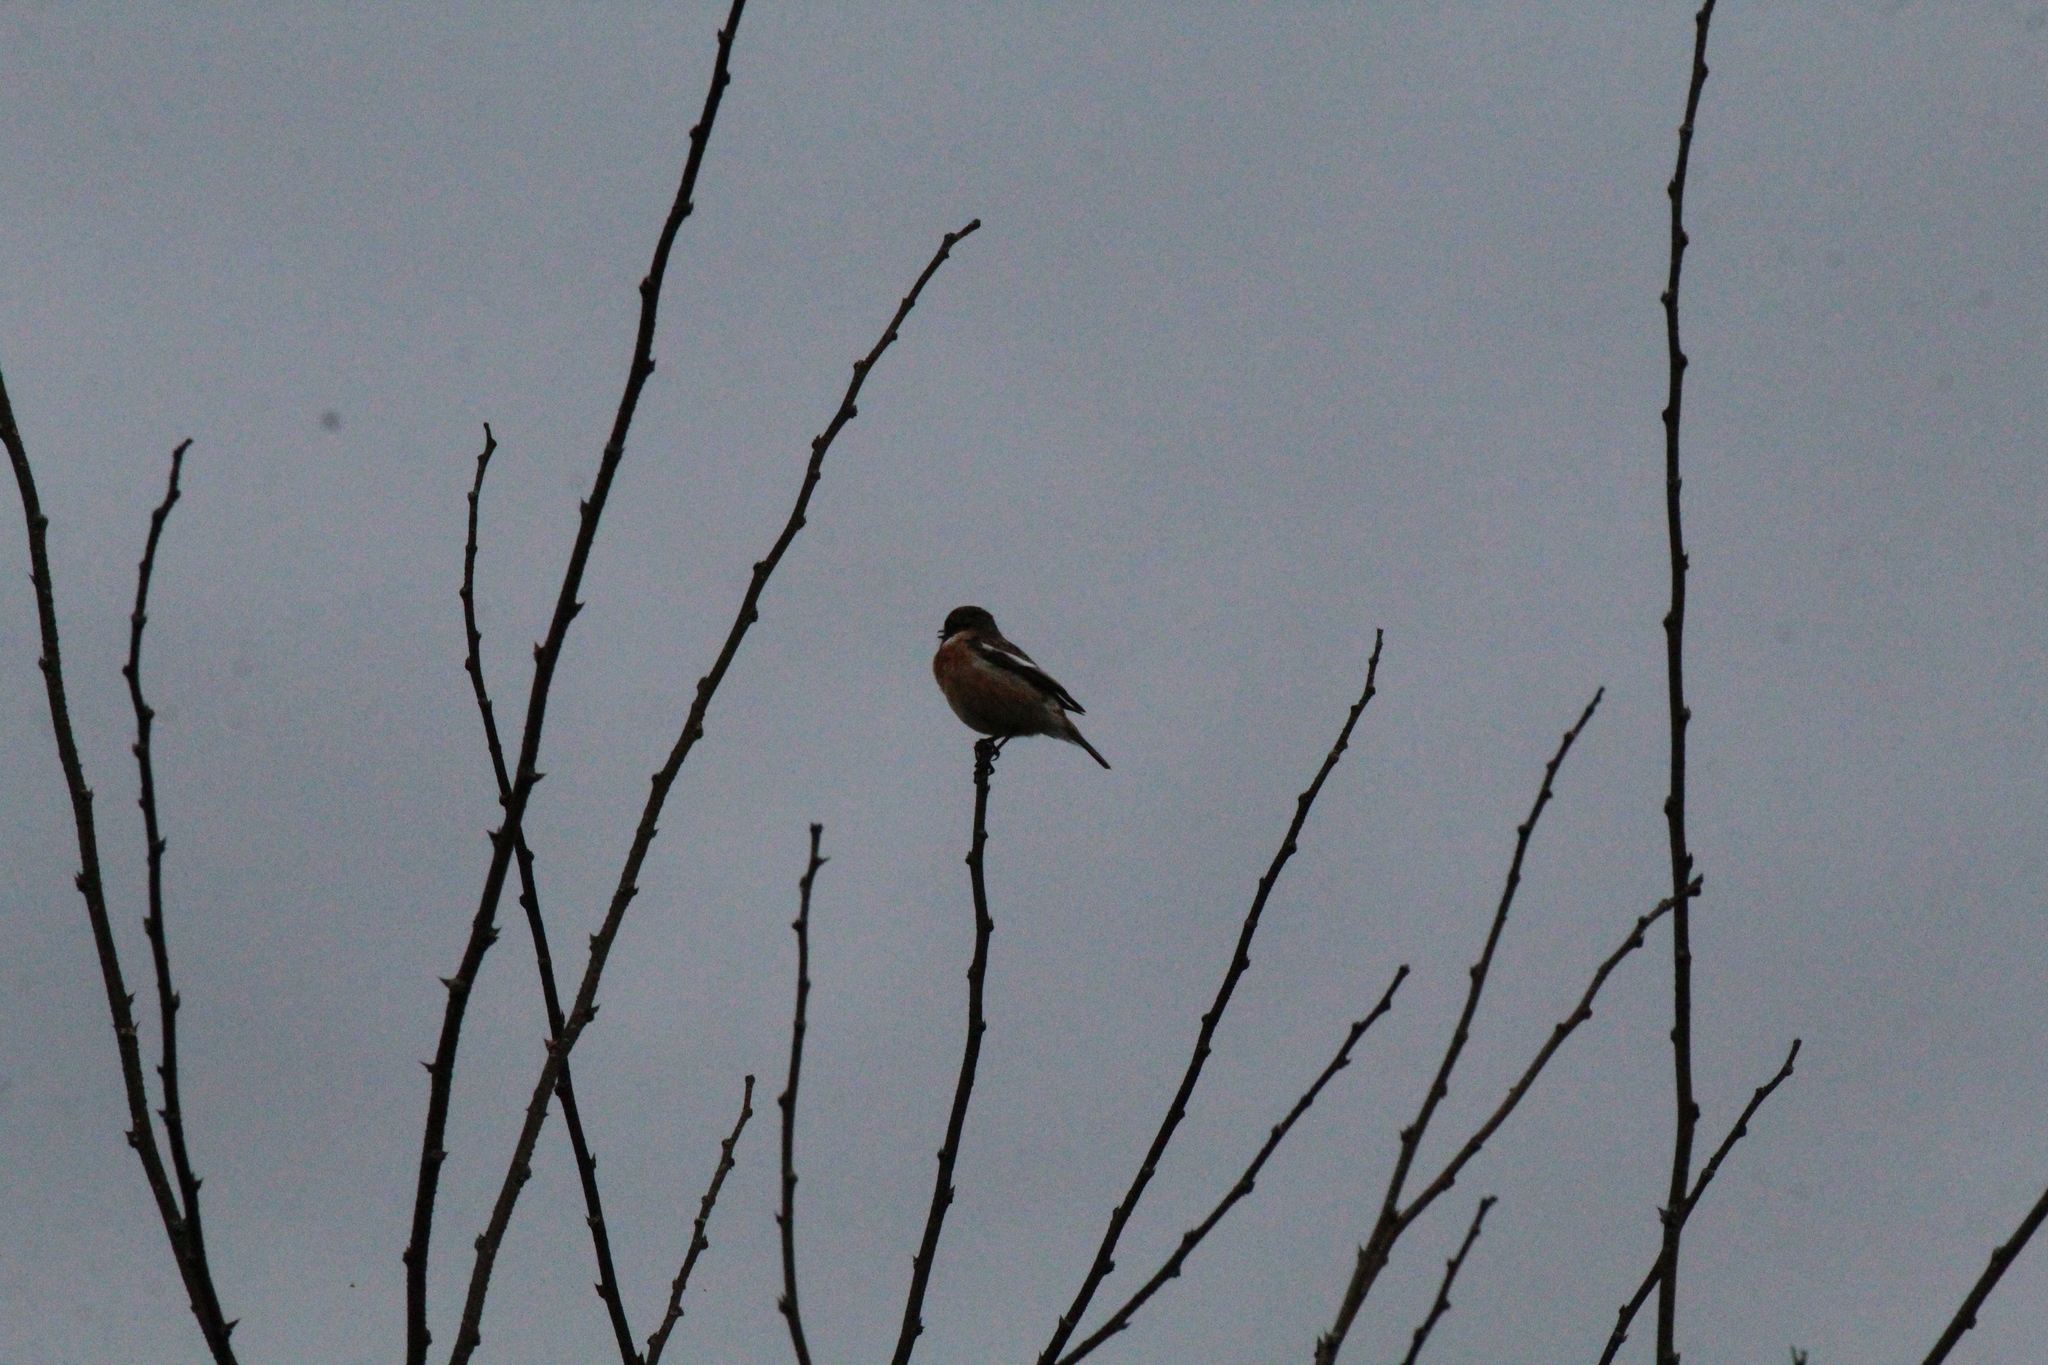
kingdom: Animalia
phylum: Chordata
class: Aves
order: Passeriformes
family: Muscicapidae
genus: Saxicola
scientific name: Saxicola rubicola
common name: European stonechat
